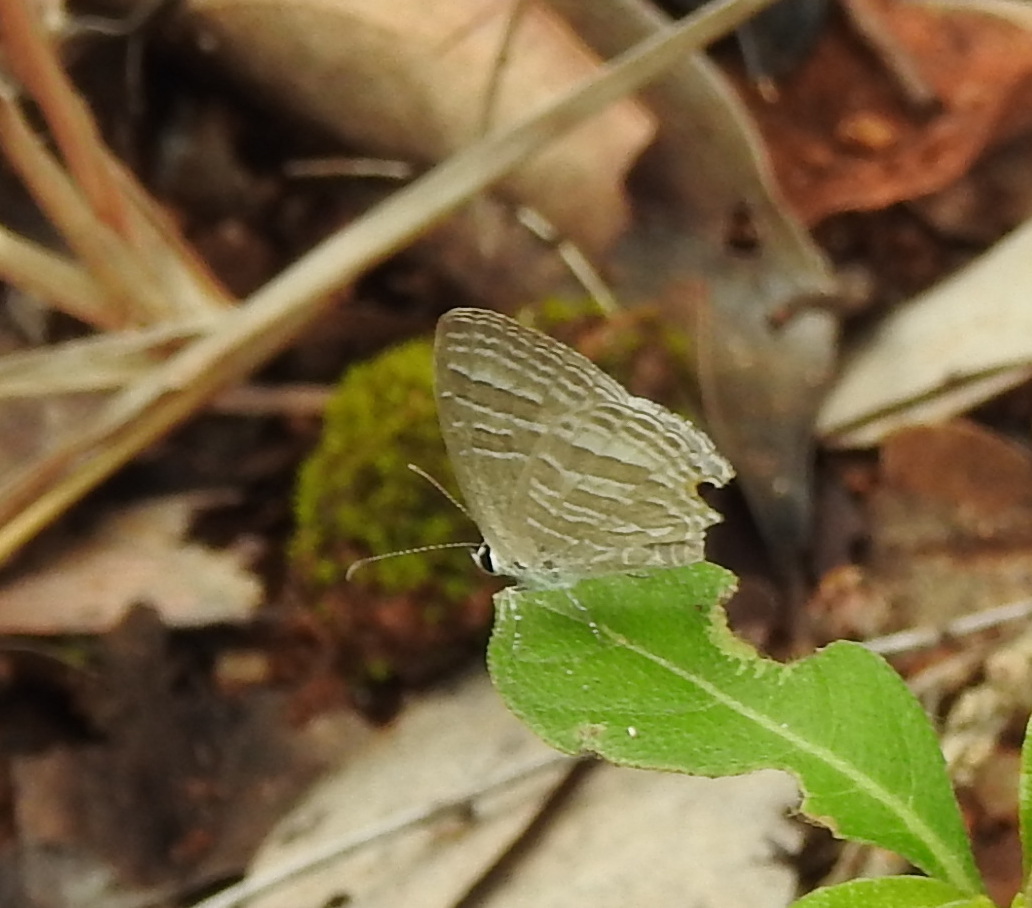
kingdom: Animalia
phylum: Arthropoda
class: Insecta
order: Lepidoptera
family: Lycaenidae
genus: Jamides
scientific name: Jamides celeno
